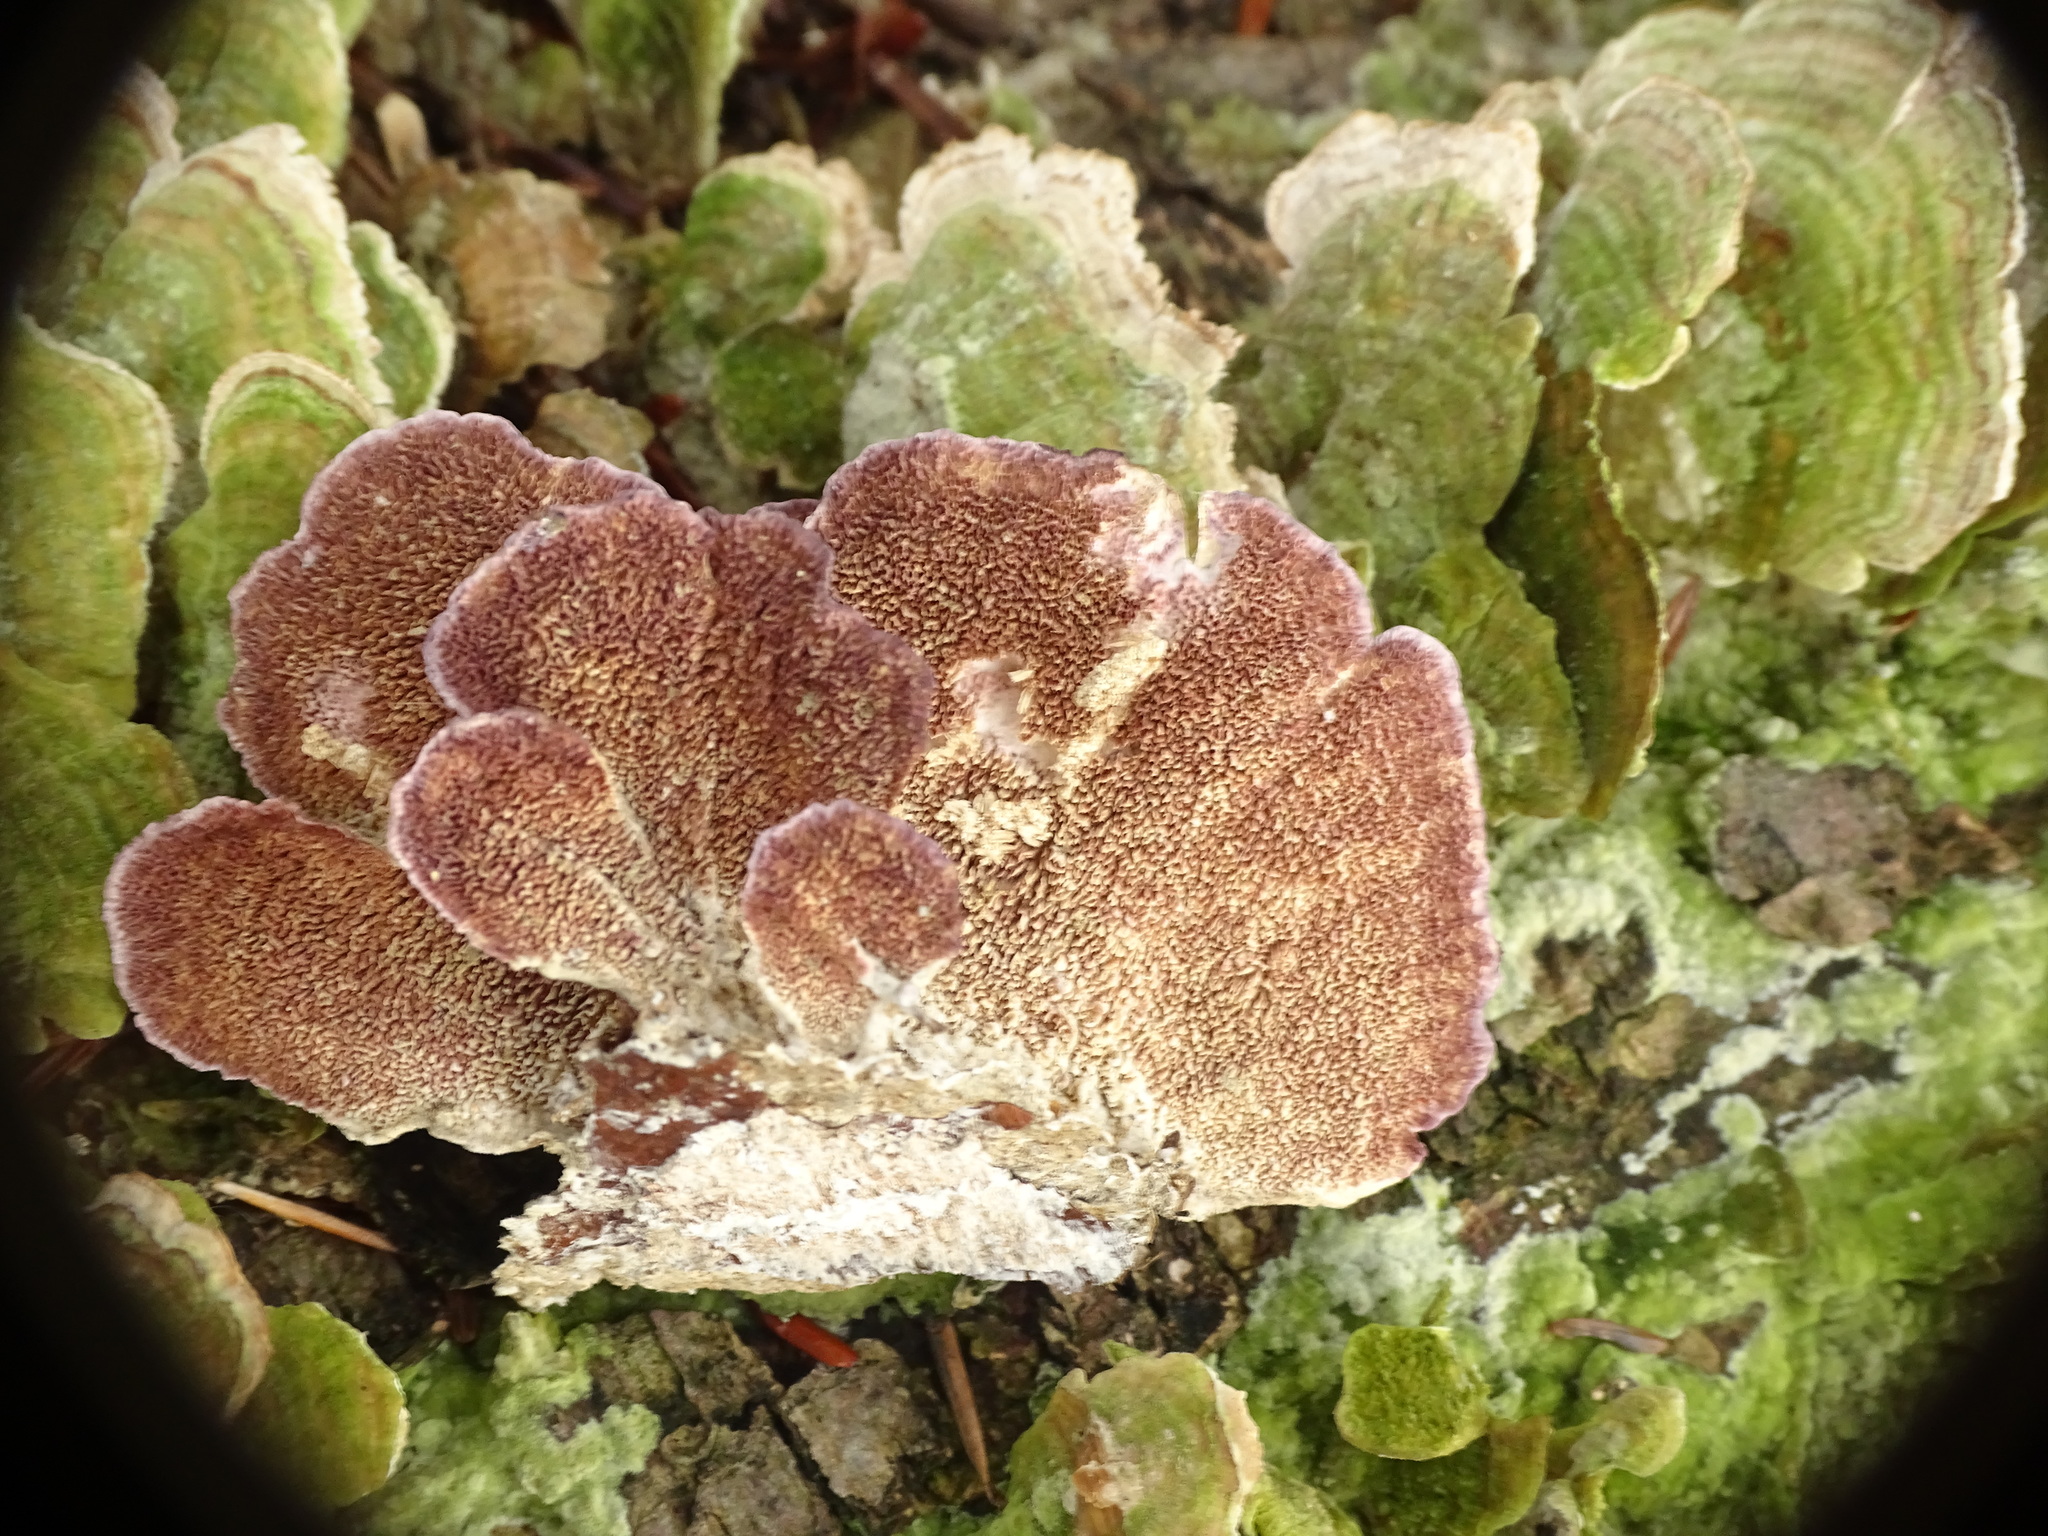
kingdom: Fungi
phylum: Basidiomycota
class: Agaricomycetes
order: Hymenochaetales
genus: Trichaptum
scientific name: Trichaptum biforme
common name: Violet-toothed polypore
